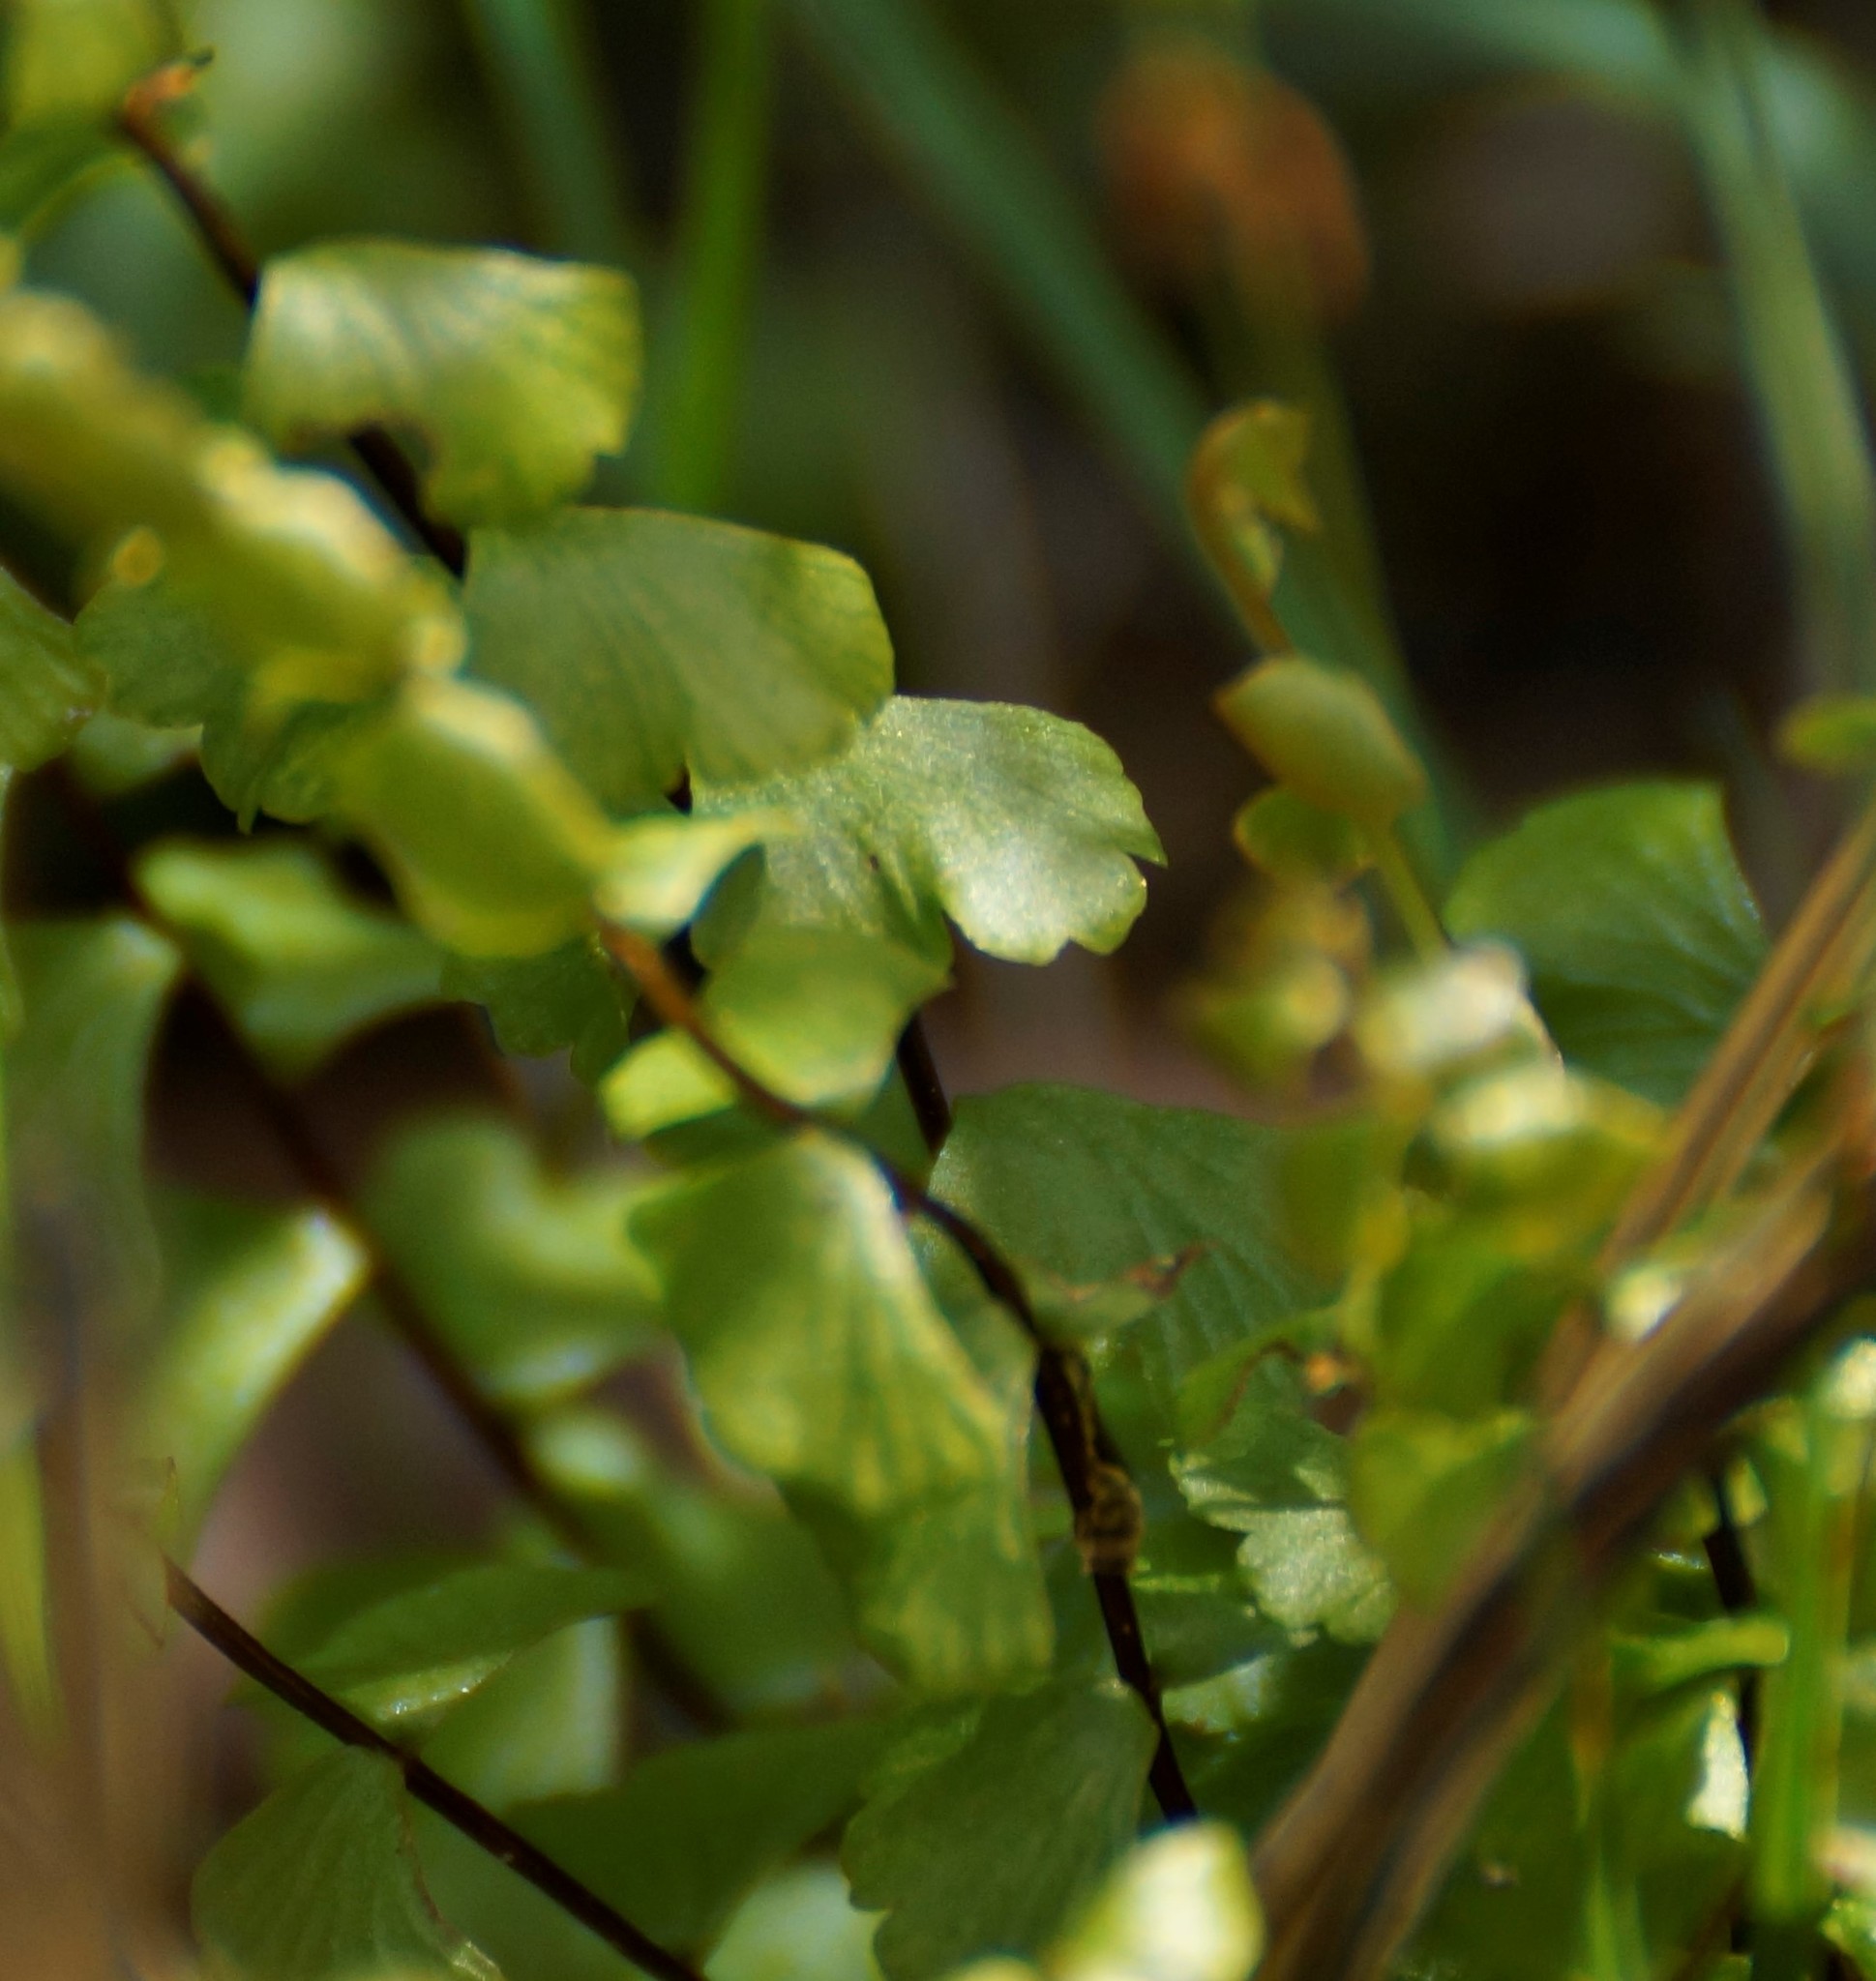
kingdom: Plantae
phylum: Tracheophyta
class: Polypodiopsida
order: Polypodiales
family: Lindsaeaceae
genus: Lindsaea
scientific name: Lindsaea linearis
